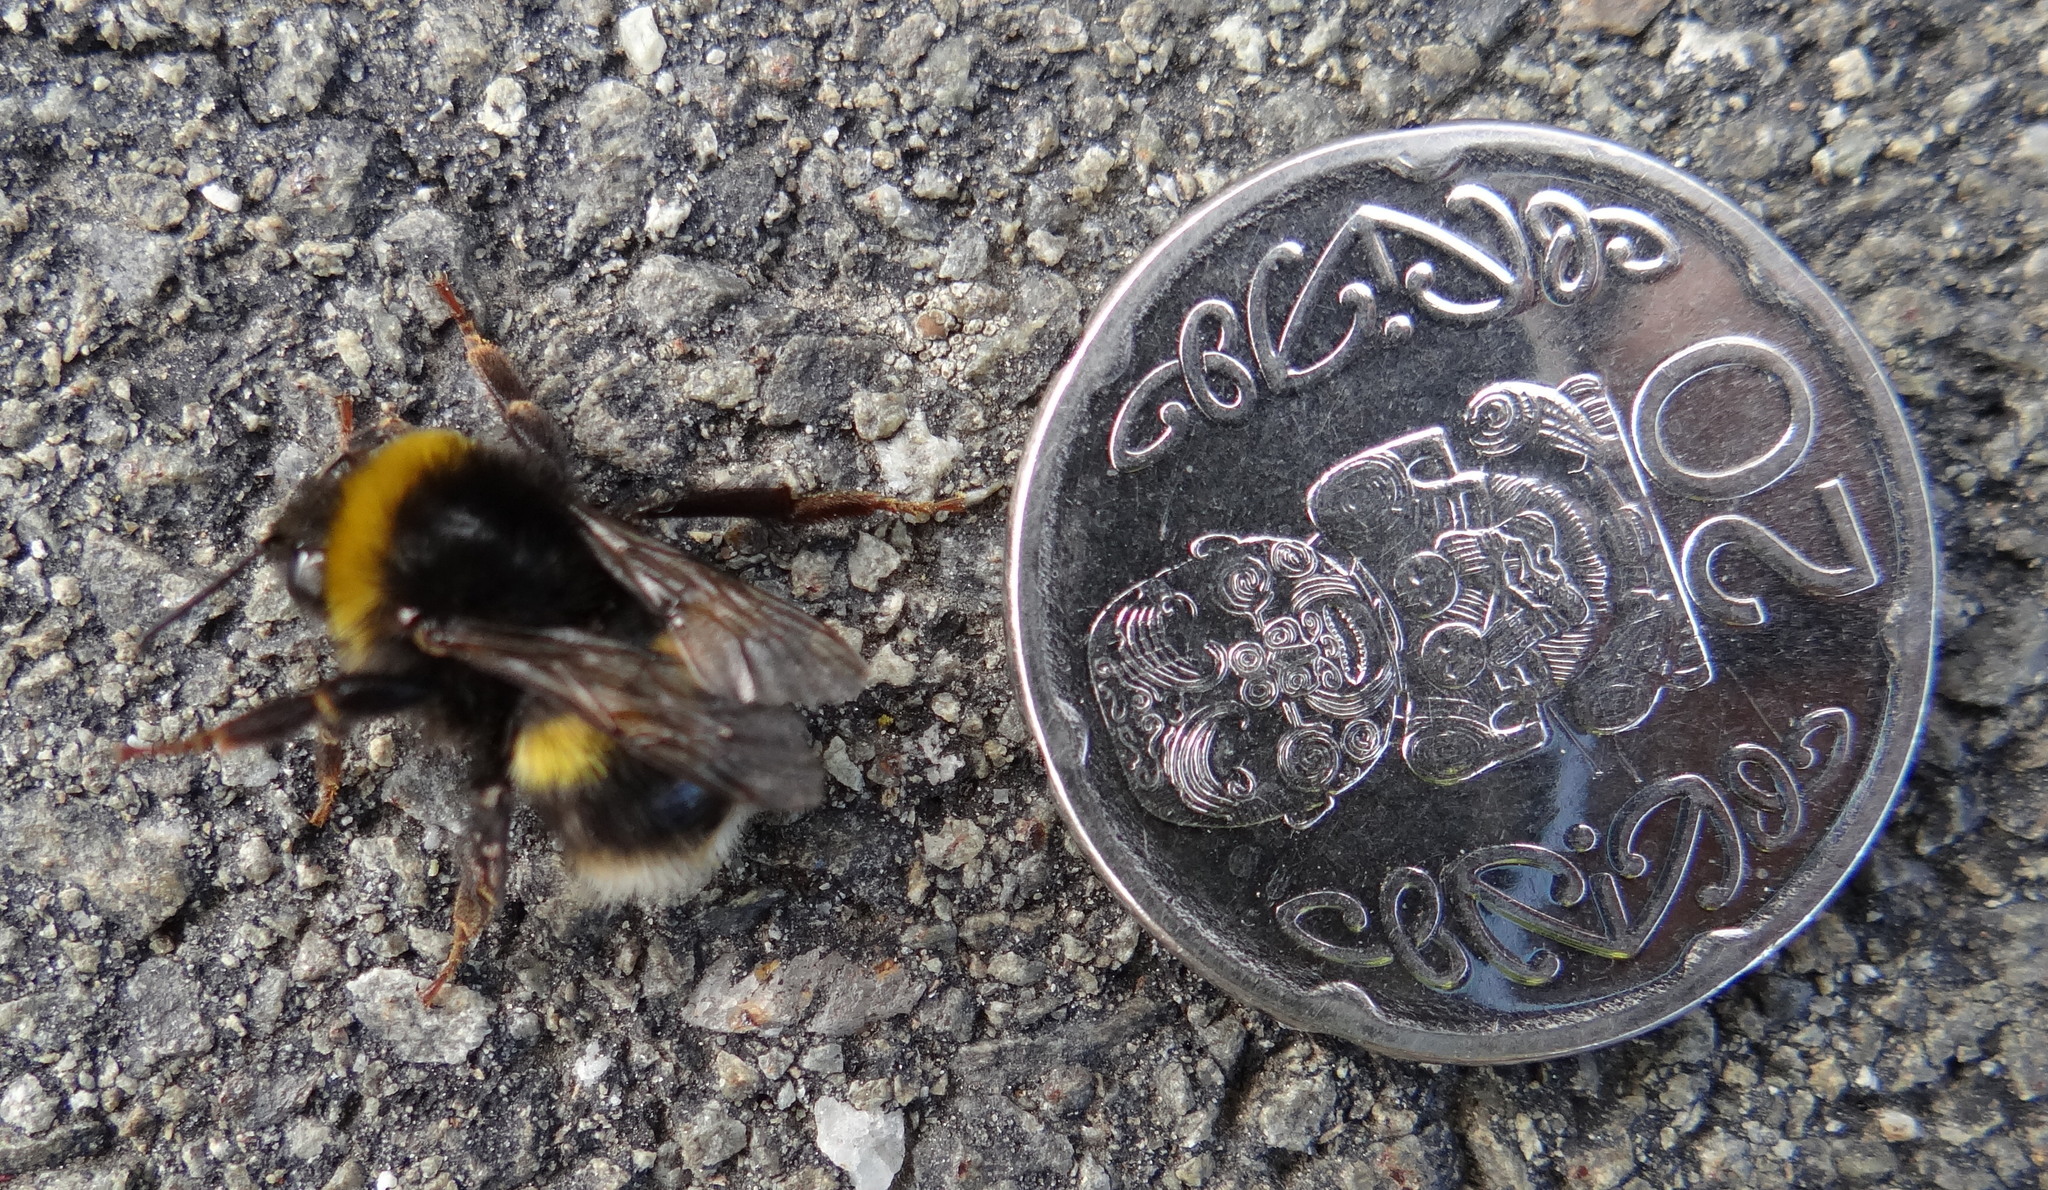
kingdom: Animalia
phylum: Arthropoda
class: Insecta
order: Hymenoptera
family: Apidae
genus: Bombus
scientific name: Bombus terrestris
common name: Buff-tailed bumblebee
